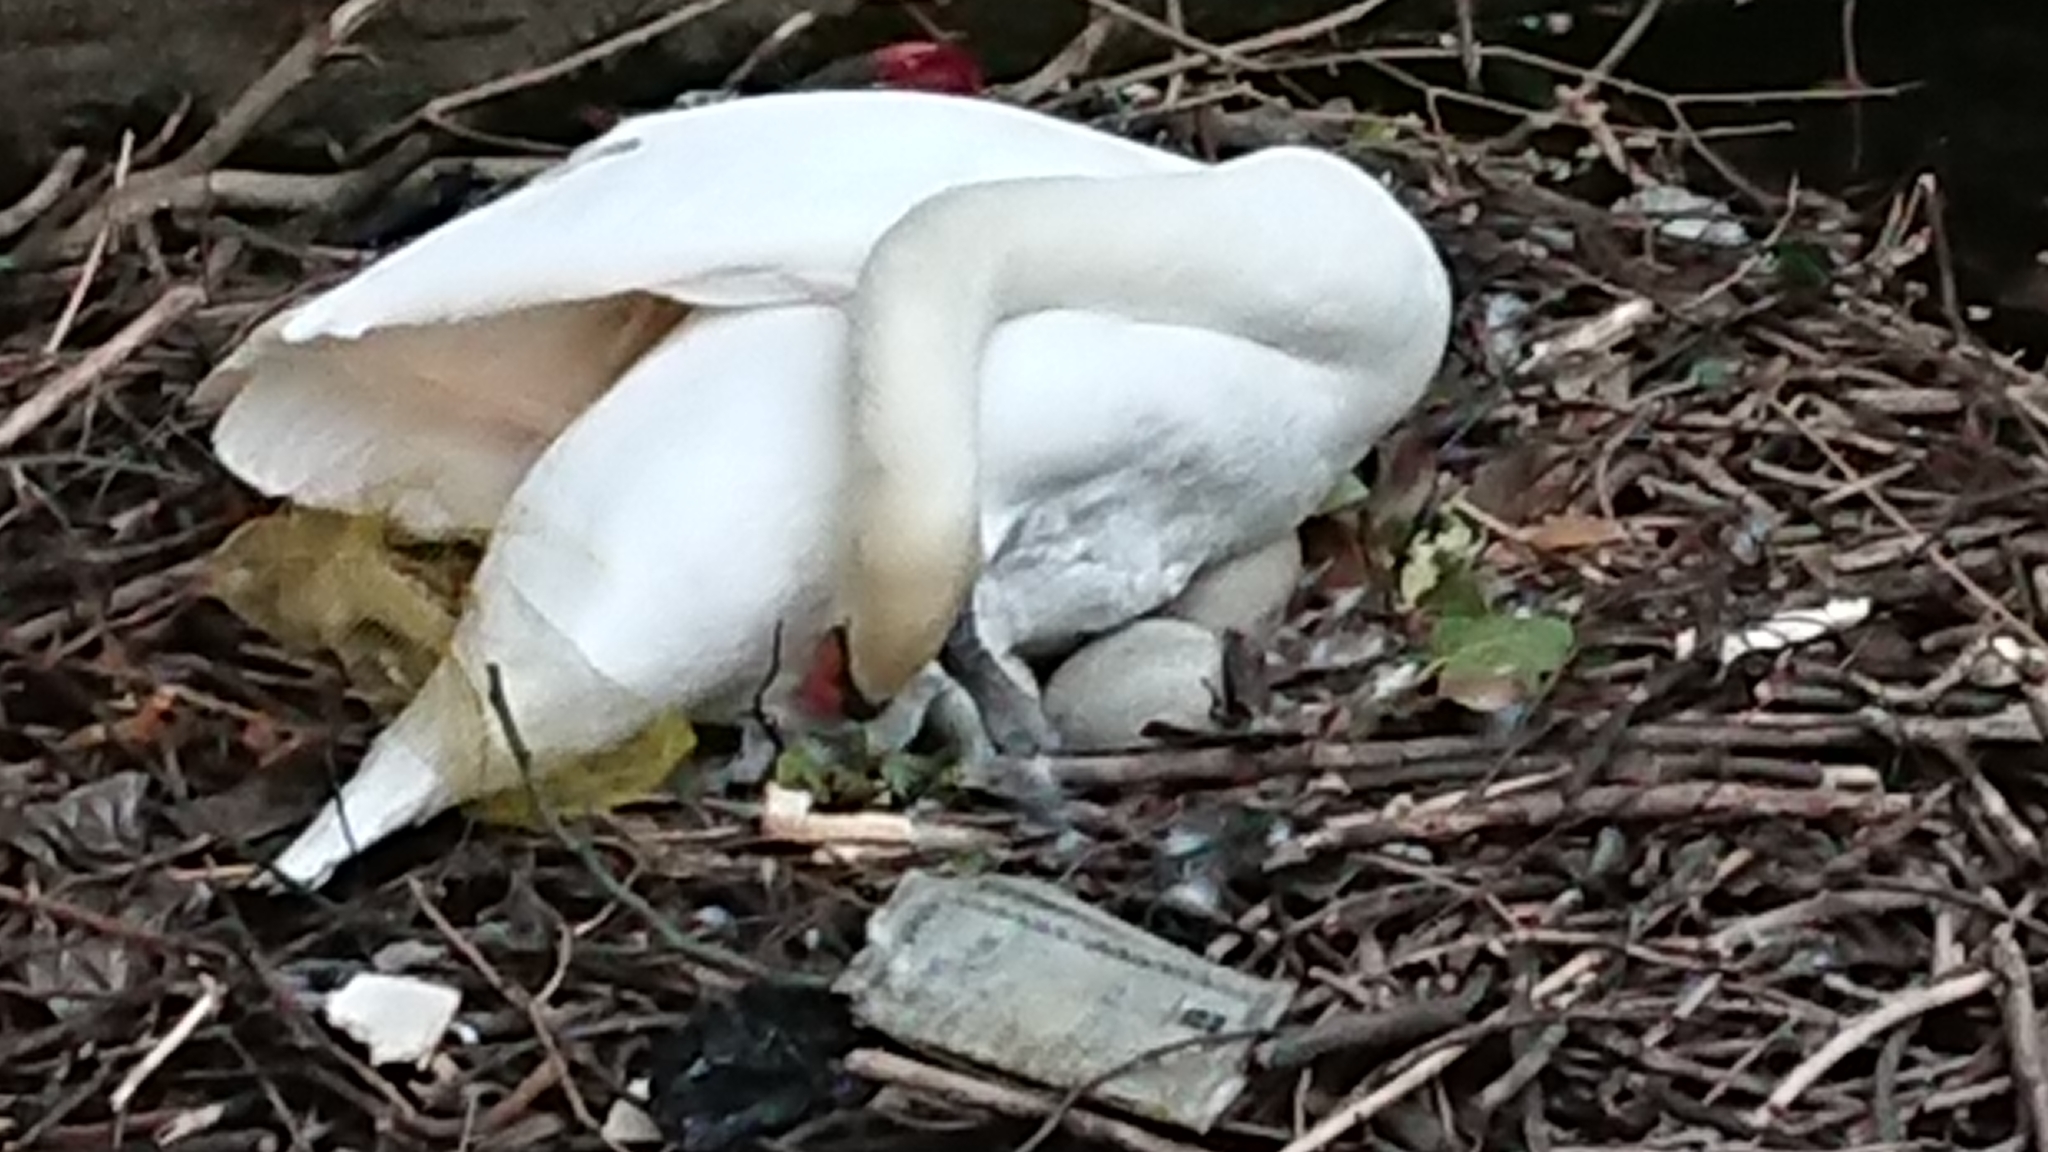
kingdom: Animalia
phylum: Chordata
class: Aves
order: Anseriformes
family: Anatidae
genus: Cygnus
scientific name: Cygnus olor
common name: Mute swan
